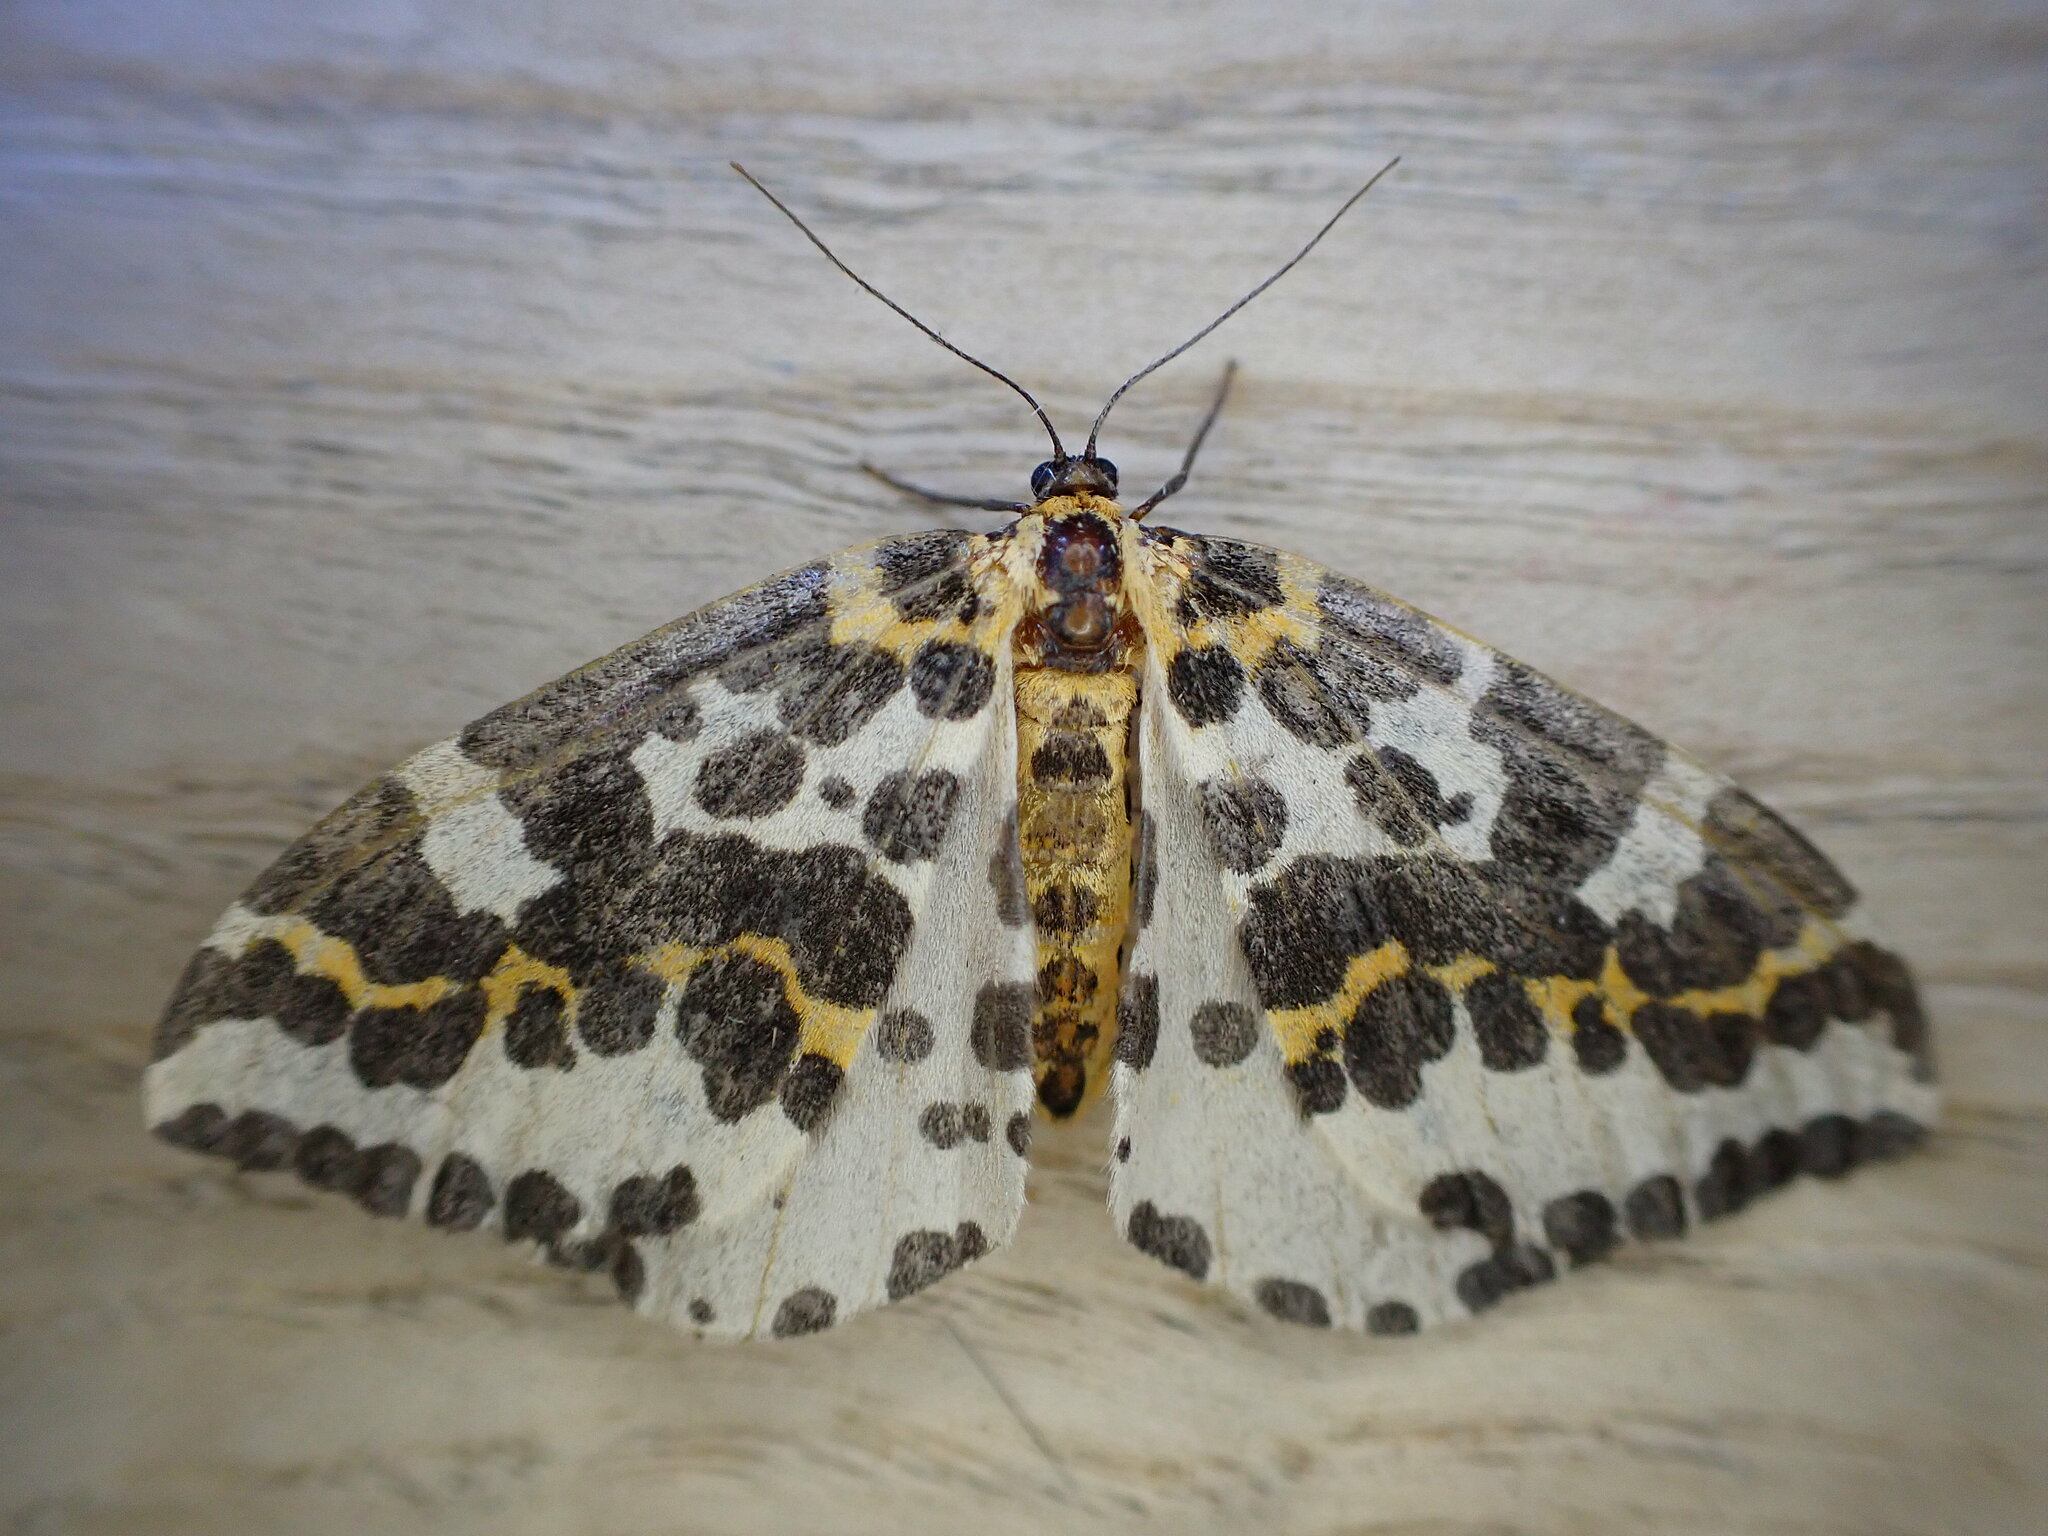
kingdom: Animalia
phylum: Arthropoda
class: Insecta
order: Lepidoptera
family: Geometridae
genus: Abraxas
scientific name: Abraxas grossulariata
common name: Magpie
